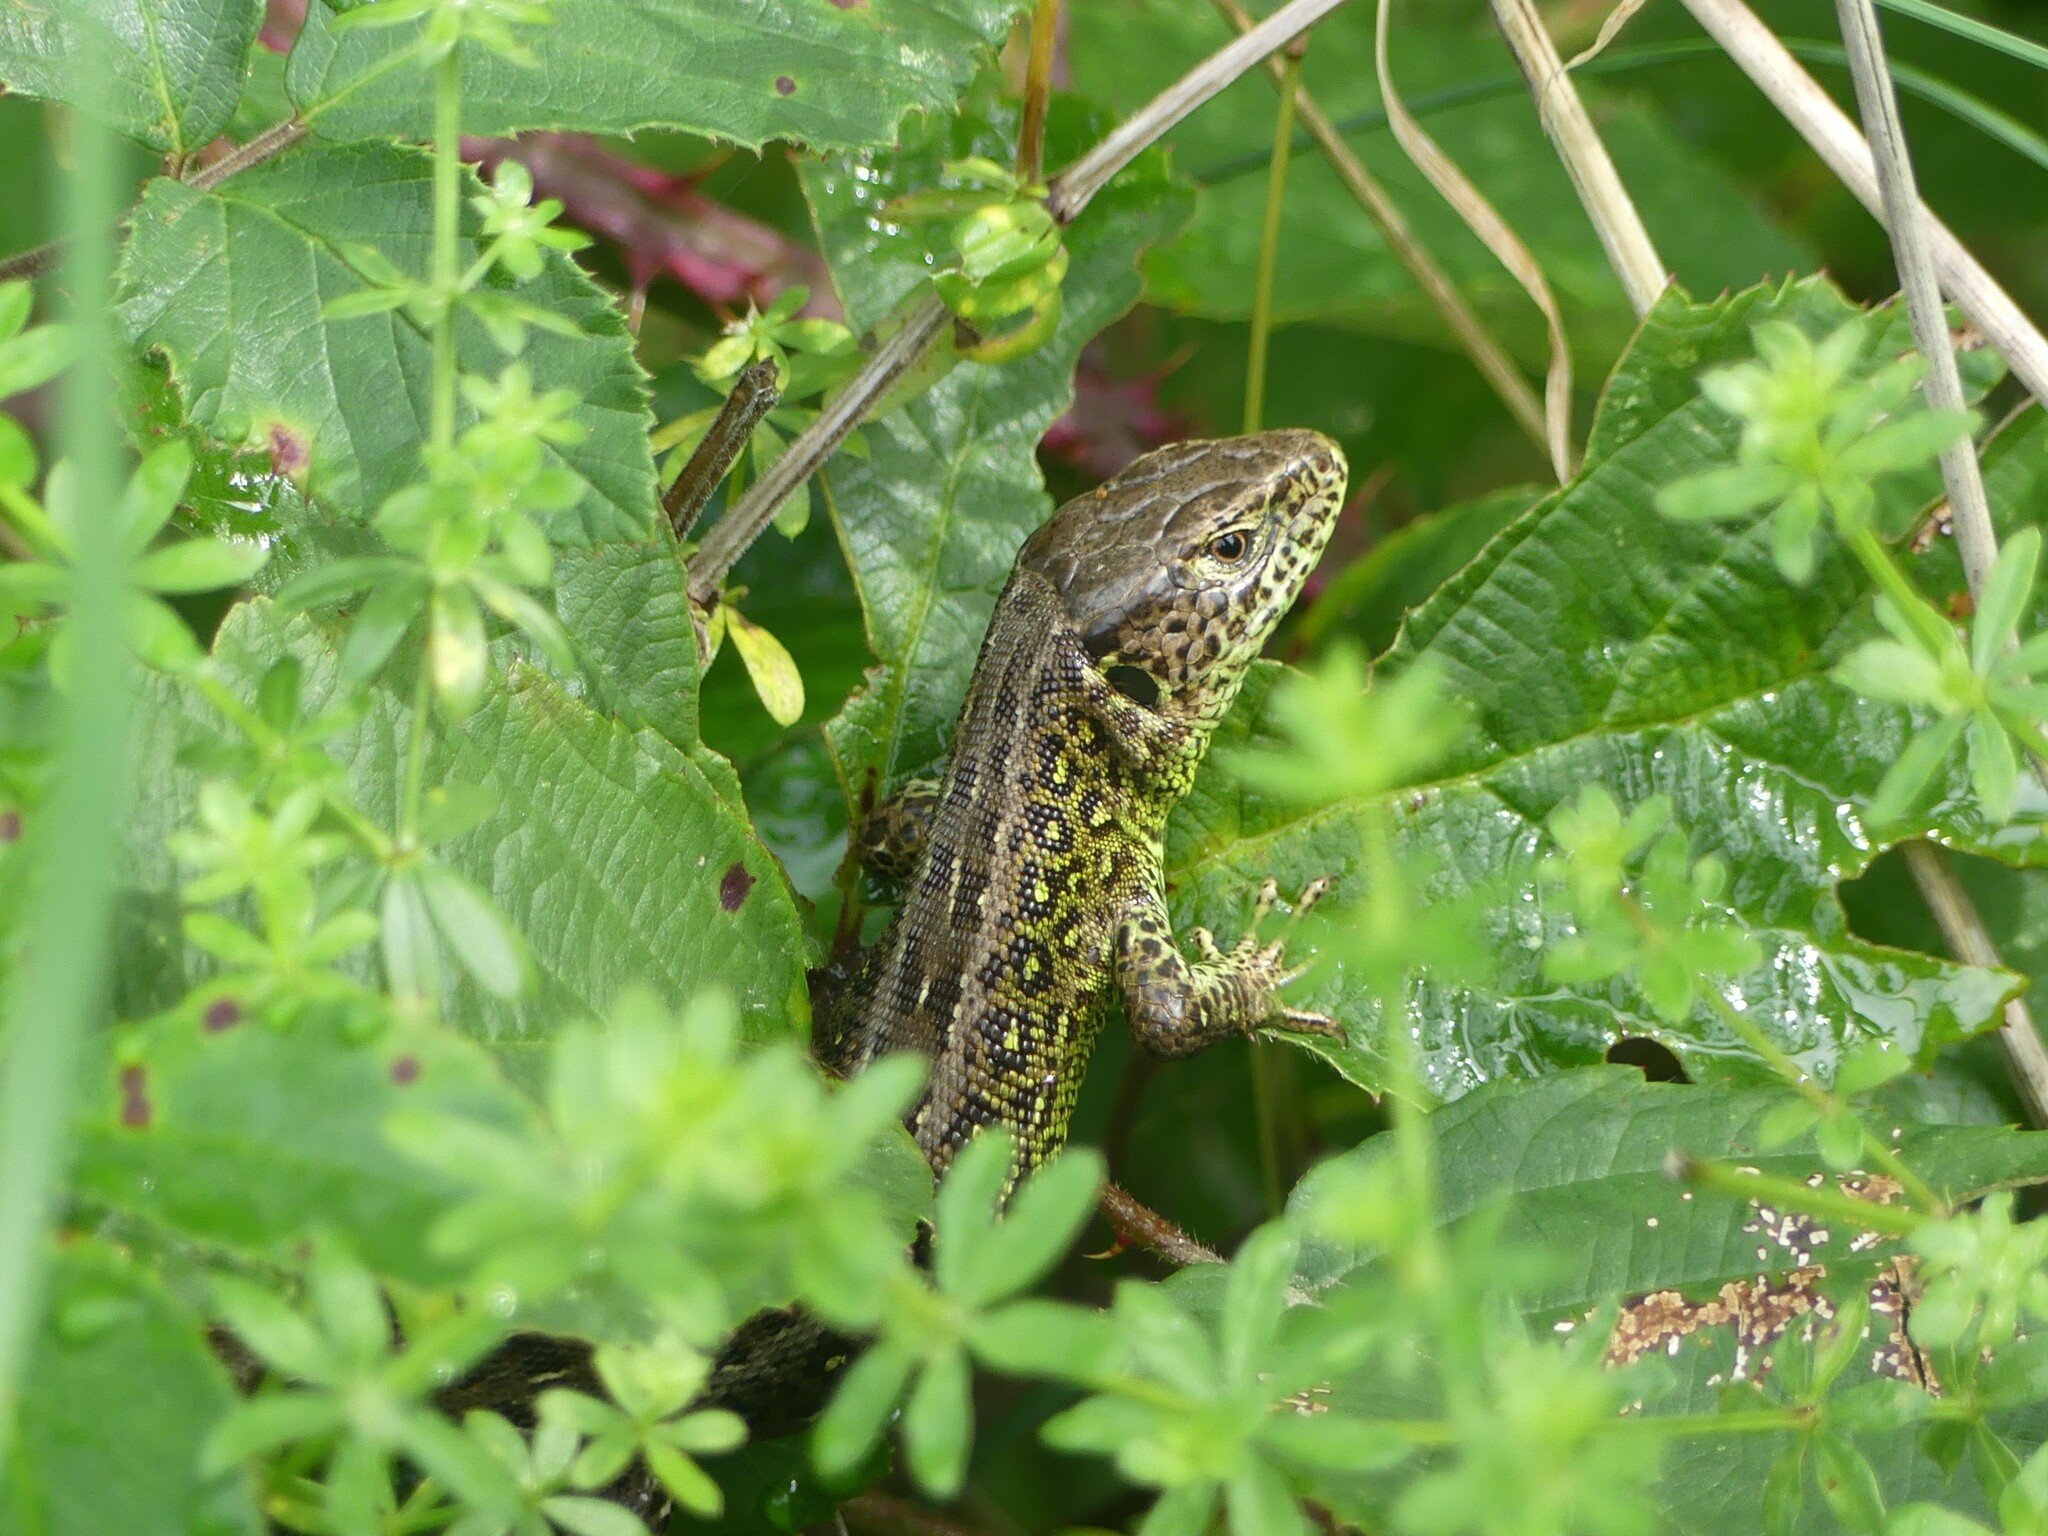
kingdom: Animalia
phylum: Chordata
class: Squamata
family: Lacertidae
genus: Lacerta
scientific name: Lacerta agilis
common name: Sand lizard
